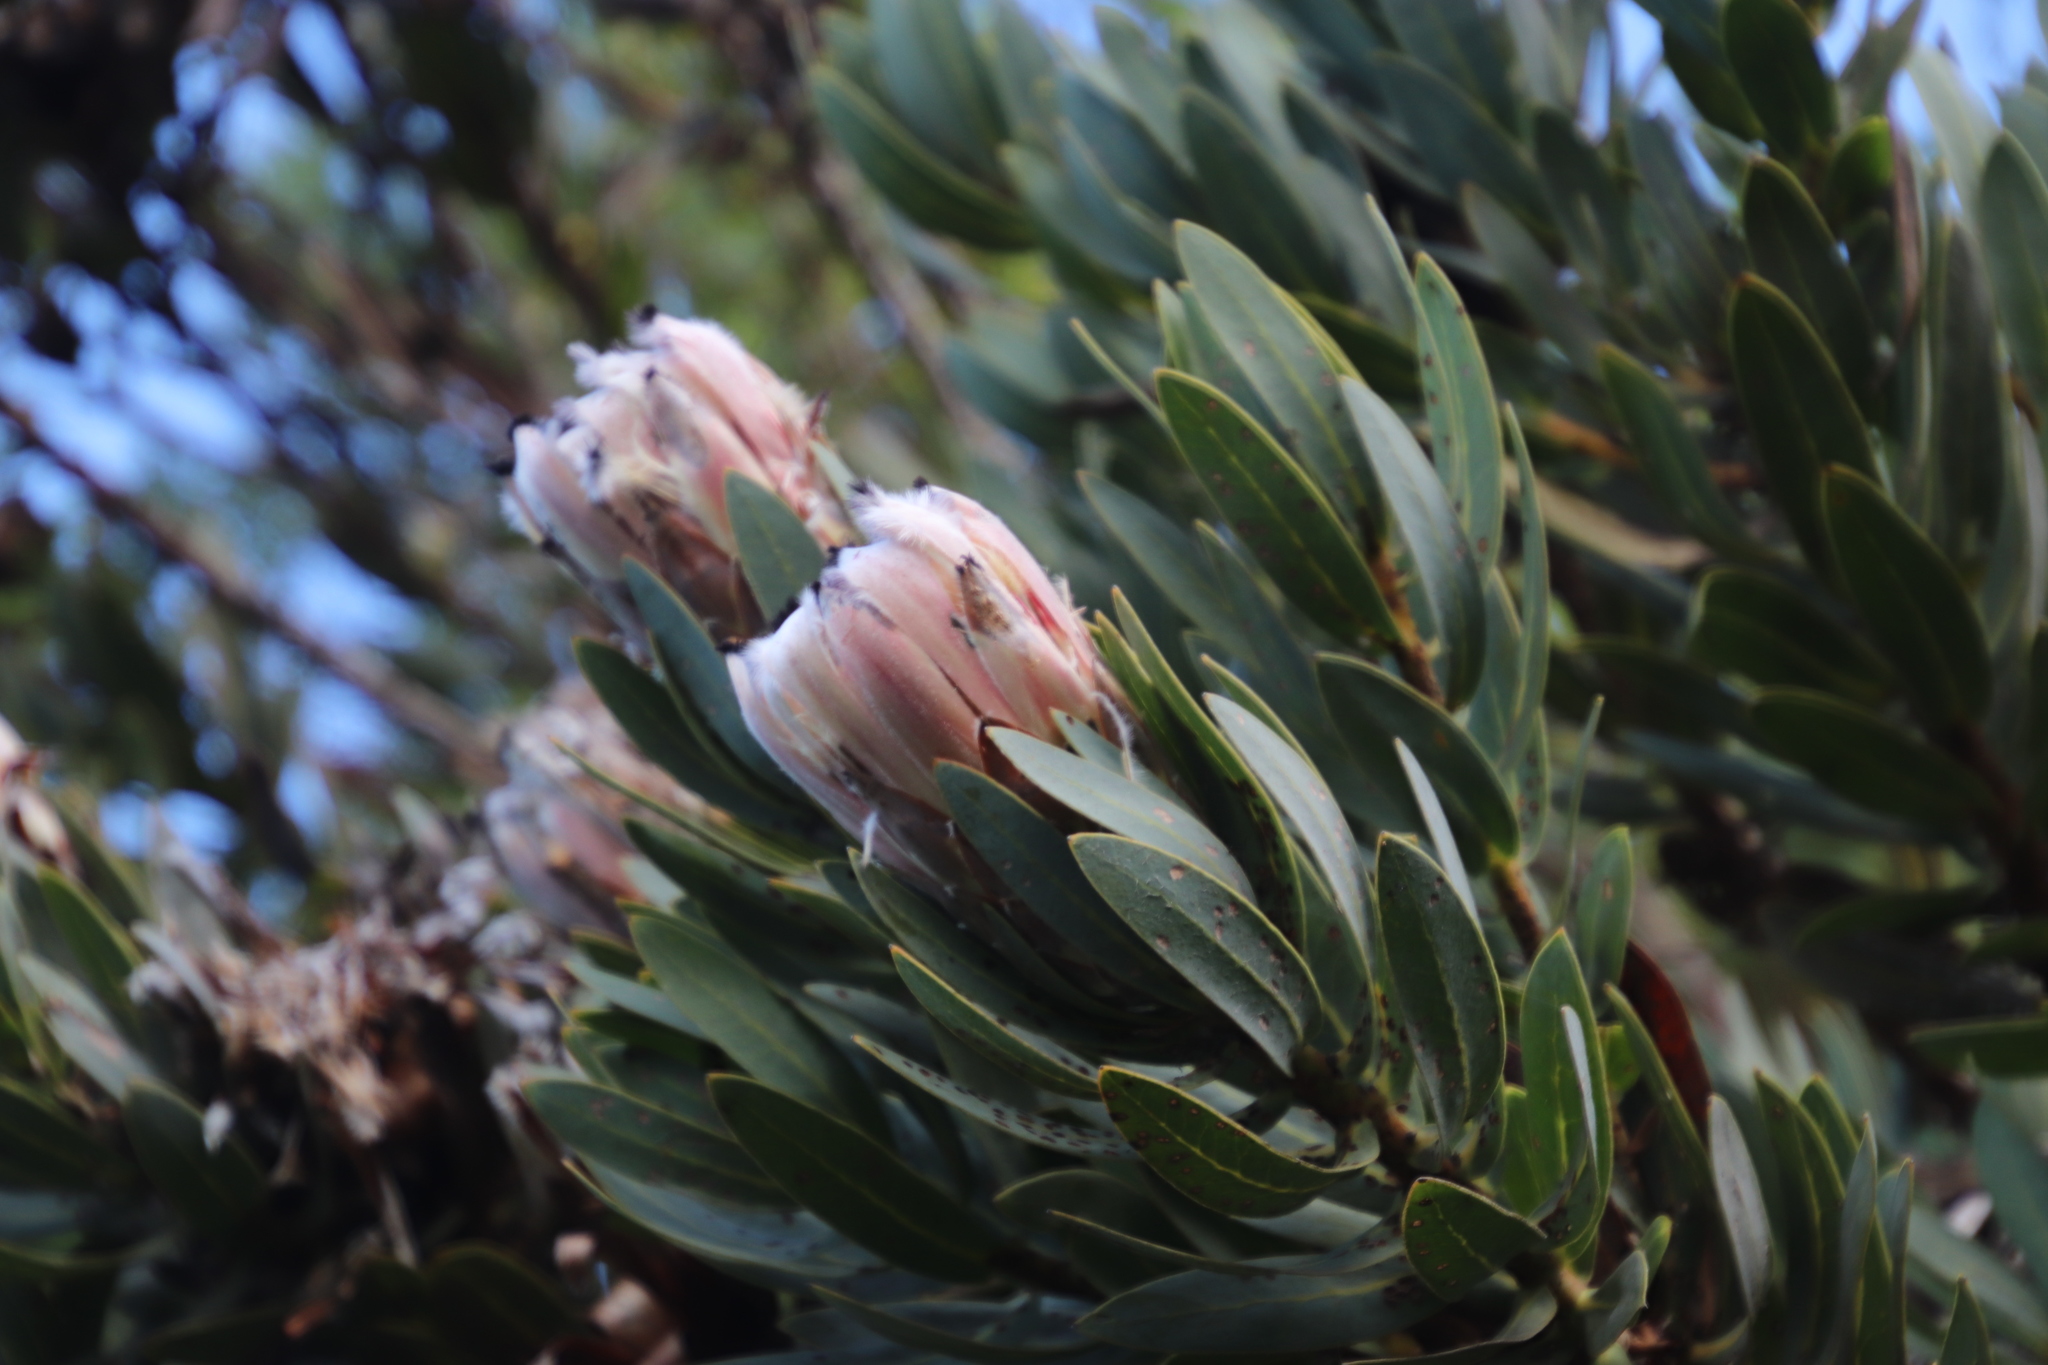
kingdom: Plantae
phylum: Tracheophyta
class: Magnoliopsida
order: Proteales
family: Proteaceae
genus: Protea
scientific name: Protea laurifolia
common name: Grey-leaf sugarbsh
